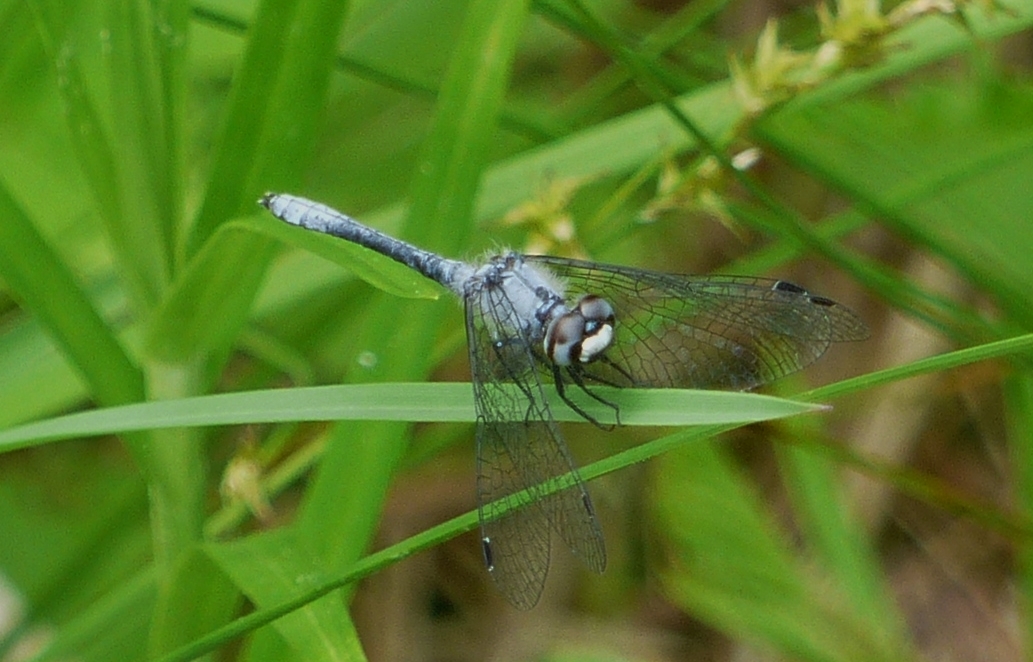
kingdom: Animalia
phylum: Arthropoda
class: Insecta
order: Odonata
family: Libellulidae
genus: Nannothemis
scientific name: Nannothemis bella
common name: Elfin skimmer
